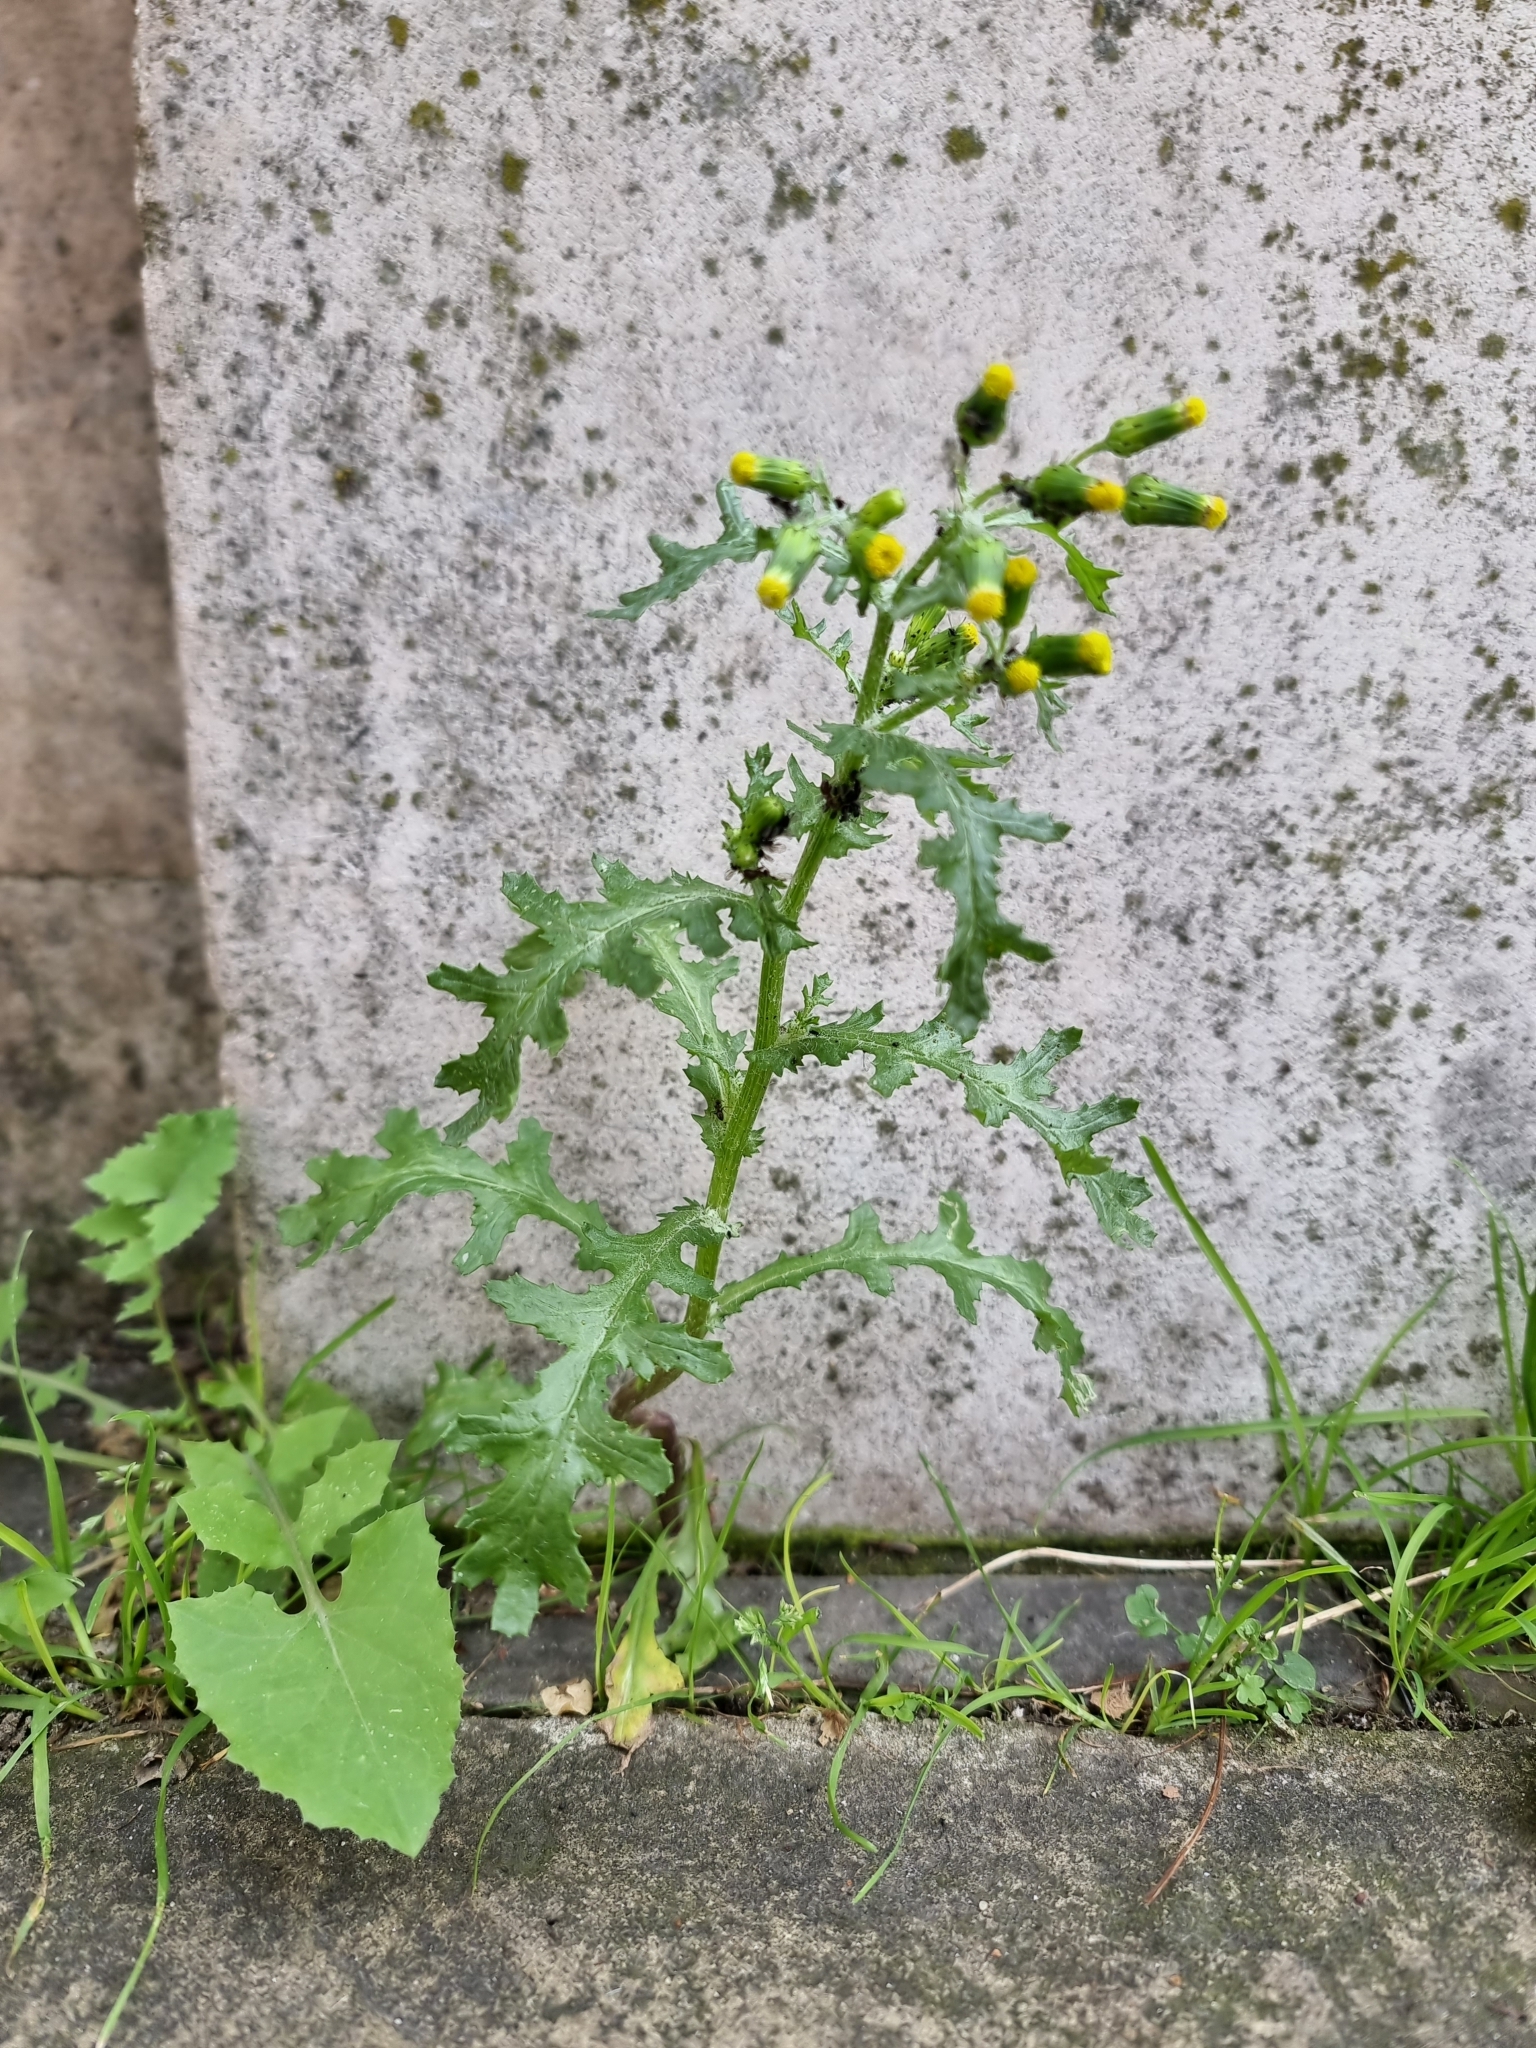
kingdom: Plantae
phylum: Tracheophyta
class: Magnoliopsida
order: Asterales
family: Asteraceae
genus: Senecio
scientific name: Senecio vulgaris
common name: Old-man-in-the-spring
